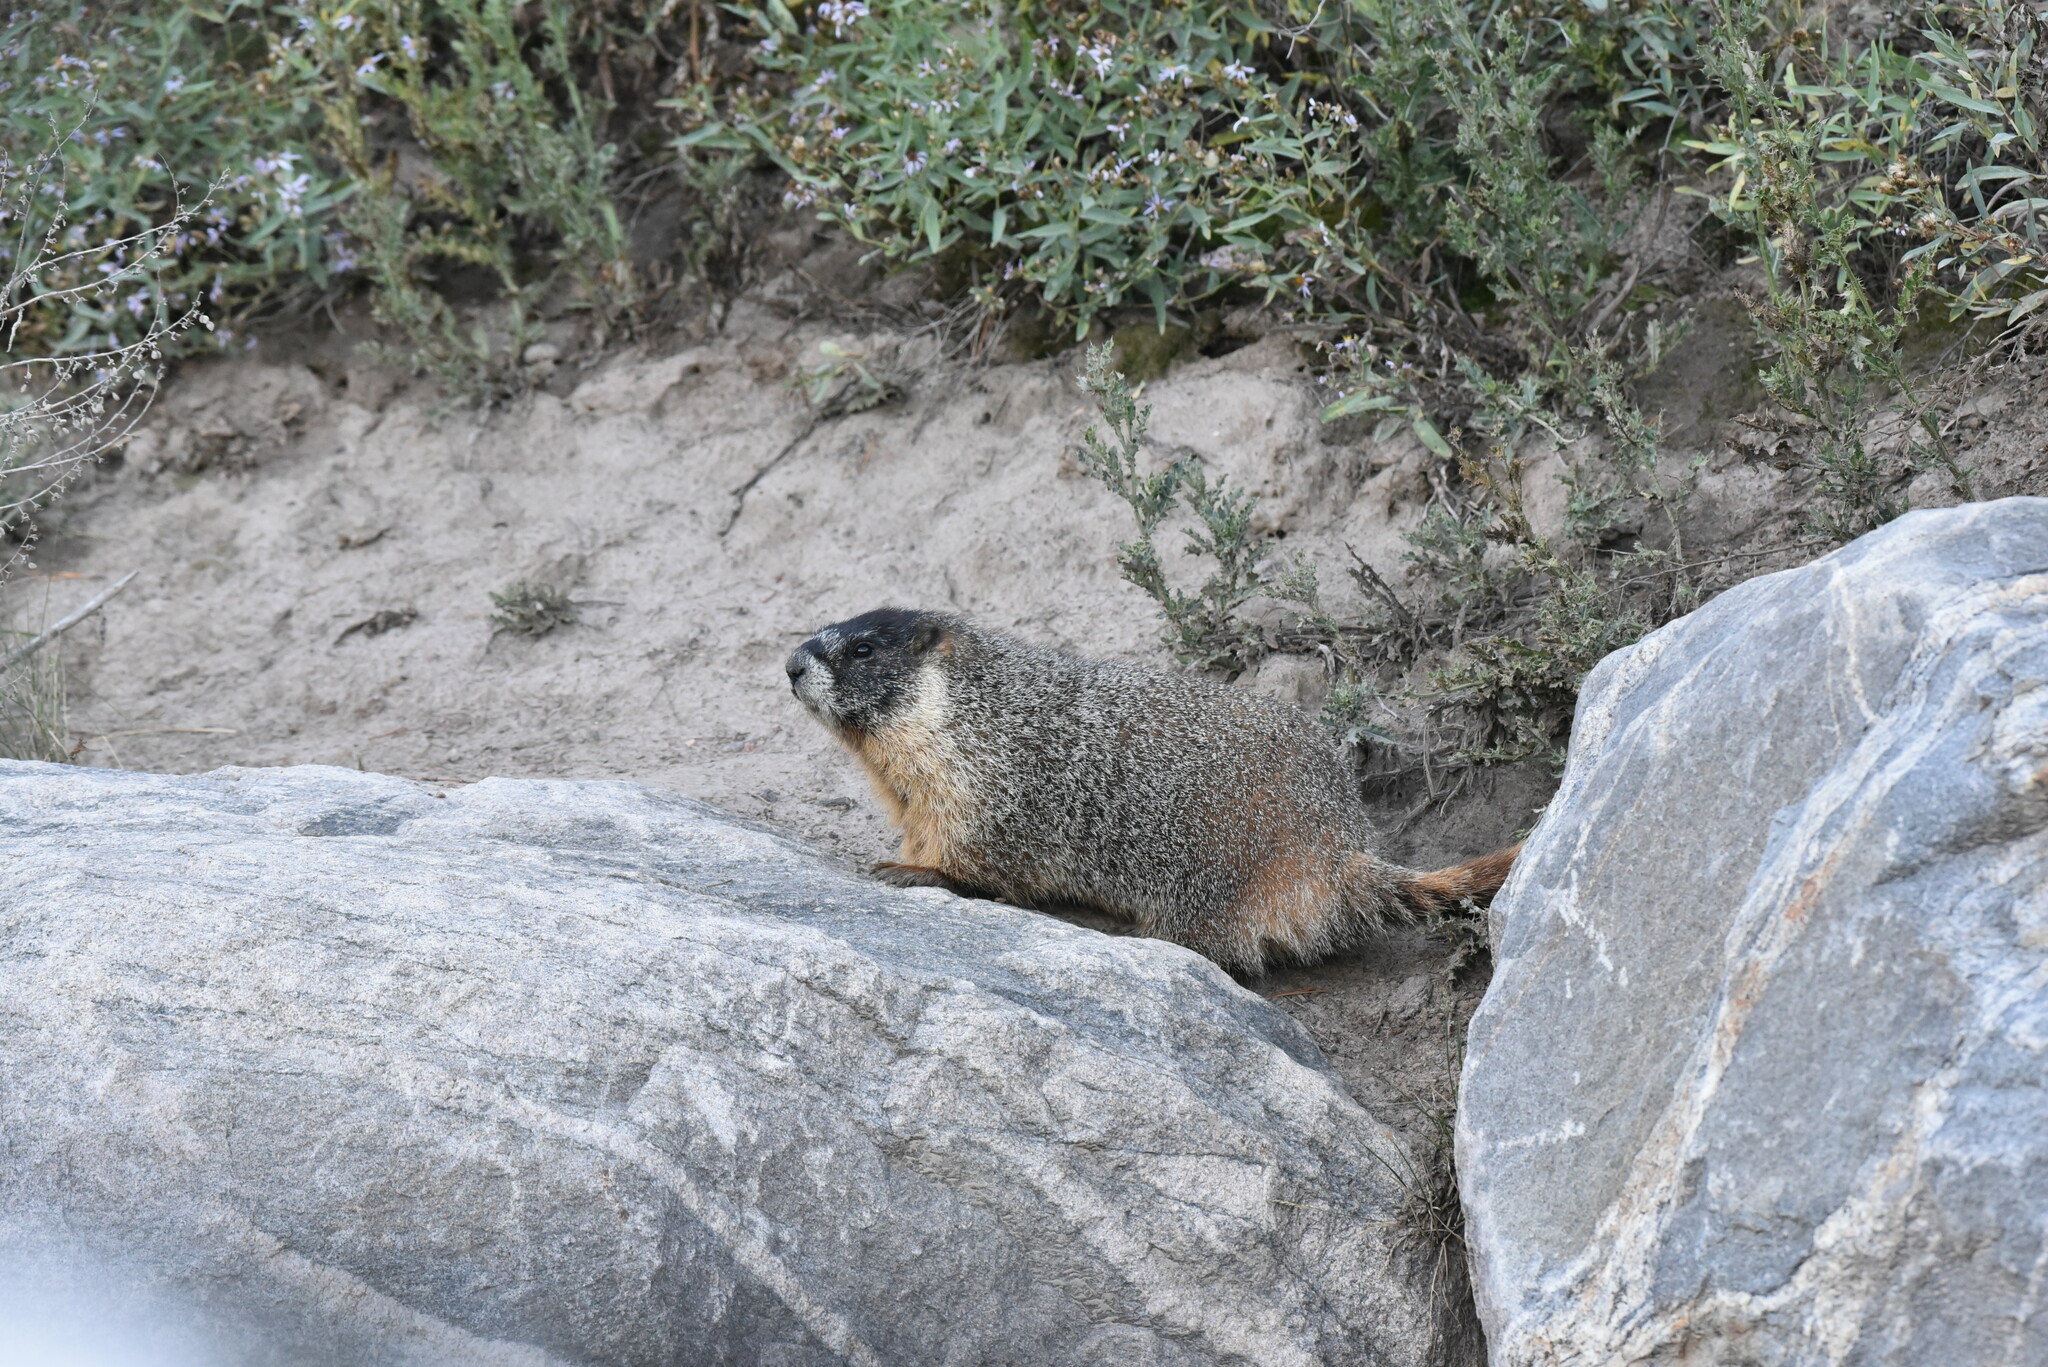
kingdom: Animalia
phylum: Chordata
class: Mammalia
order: Rodentia
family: Sciuridae
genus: Marmota
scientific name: Marmota flaviventris
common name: Yellow-bellied marmot
